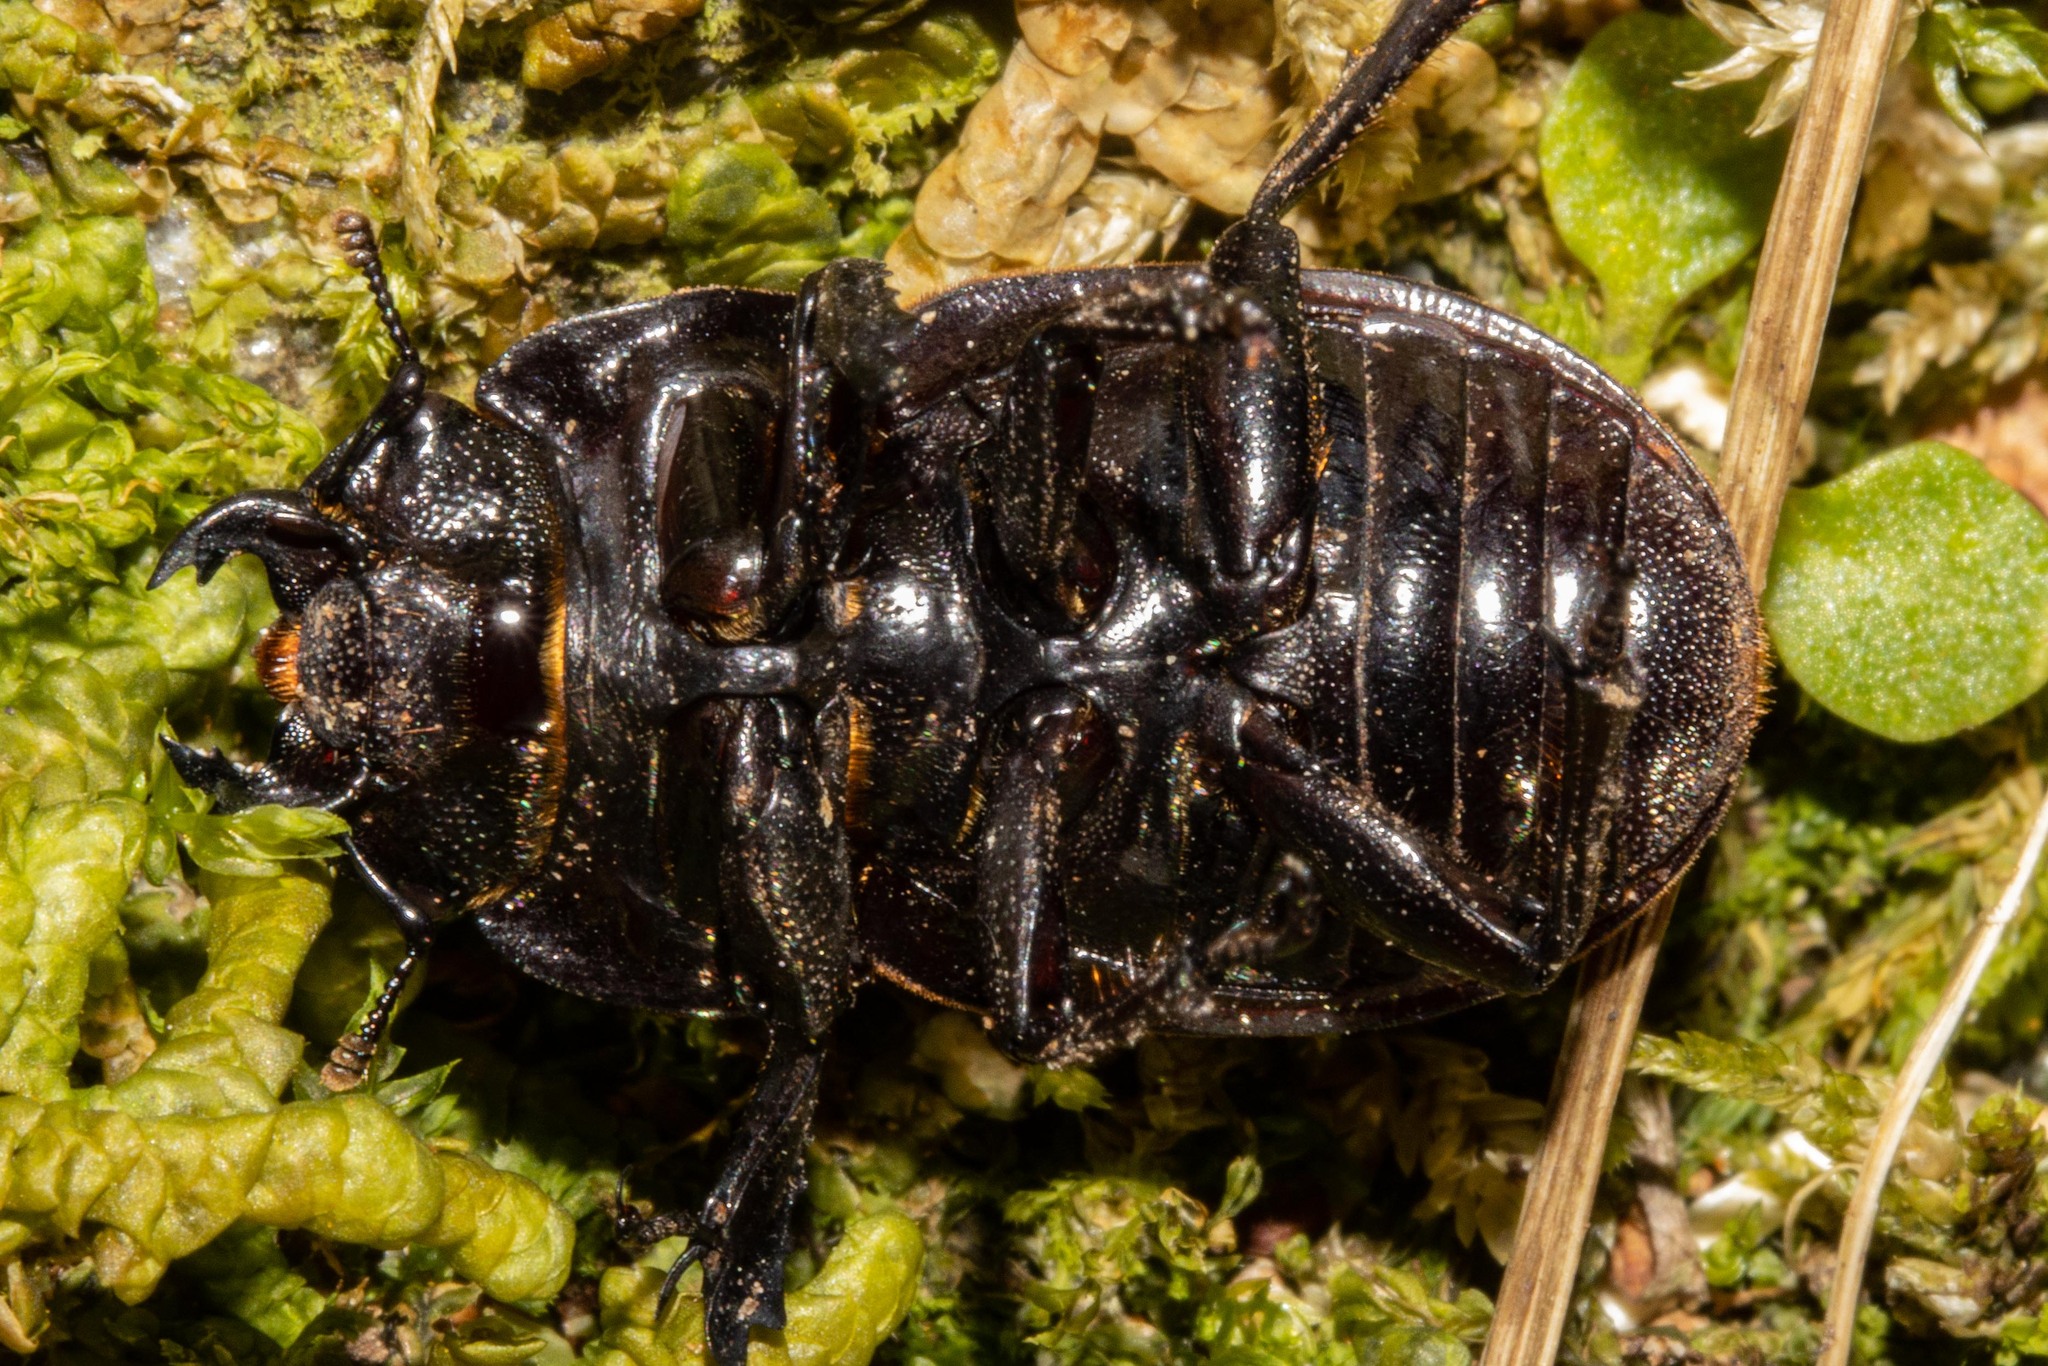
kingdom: Animalia
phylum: Arthropoda
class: Insecta
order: Coleoptera
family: Lucanidae
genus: Geodorcus
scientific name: Geodorcus helmsi
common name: Helm's stag beetle
